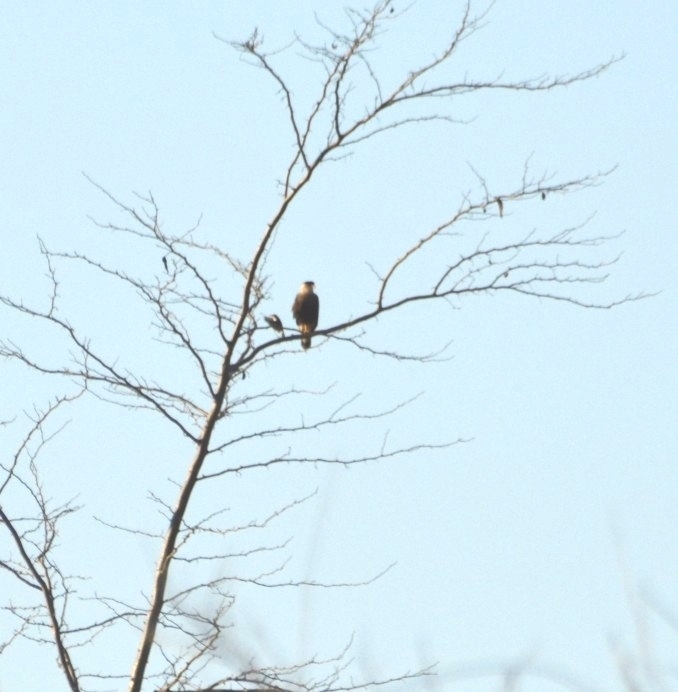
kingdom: Animalia
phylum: Chordata
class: Aves
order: Falconiformes
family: Falconidae
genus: Caracara
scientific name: Caracara plancus
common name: Southern caracara
